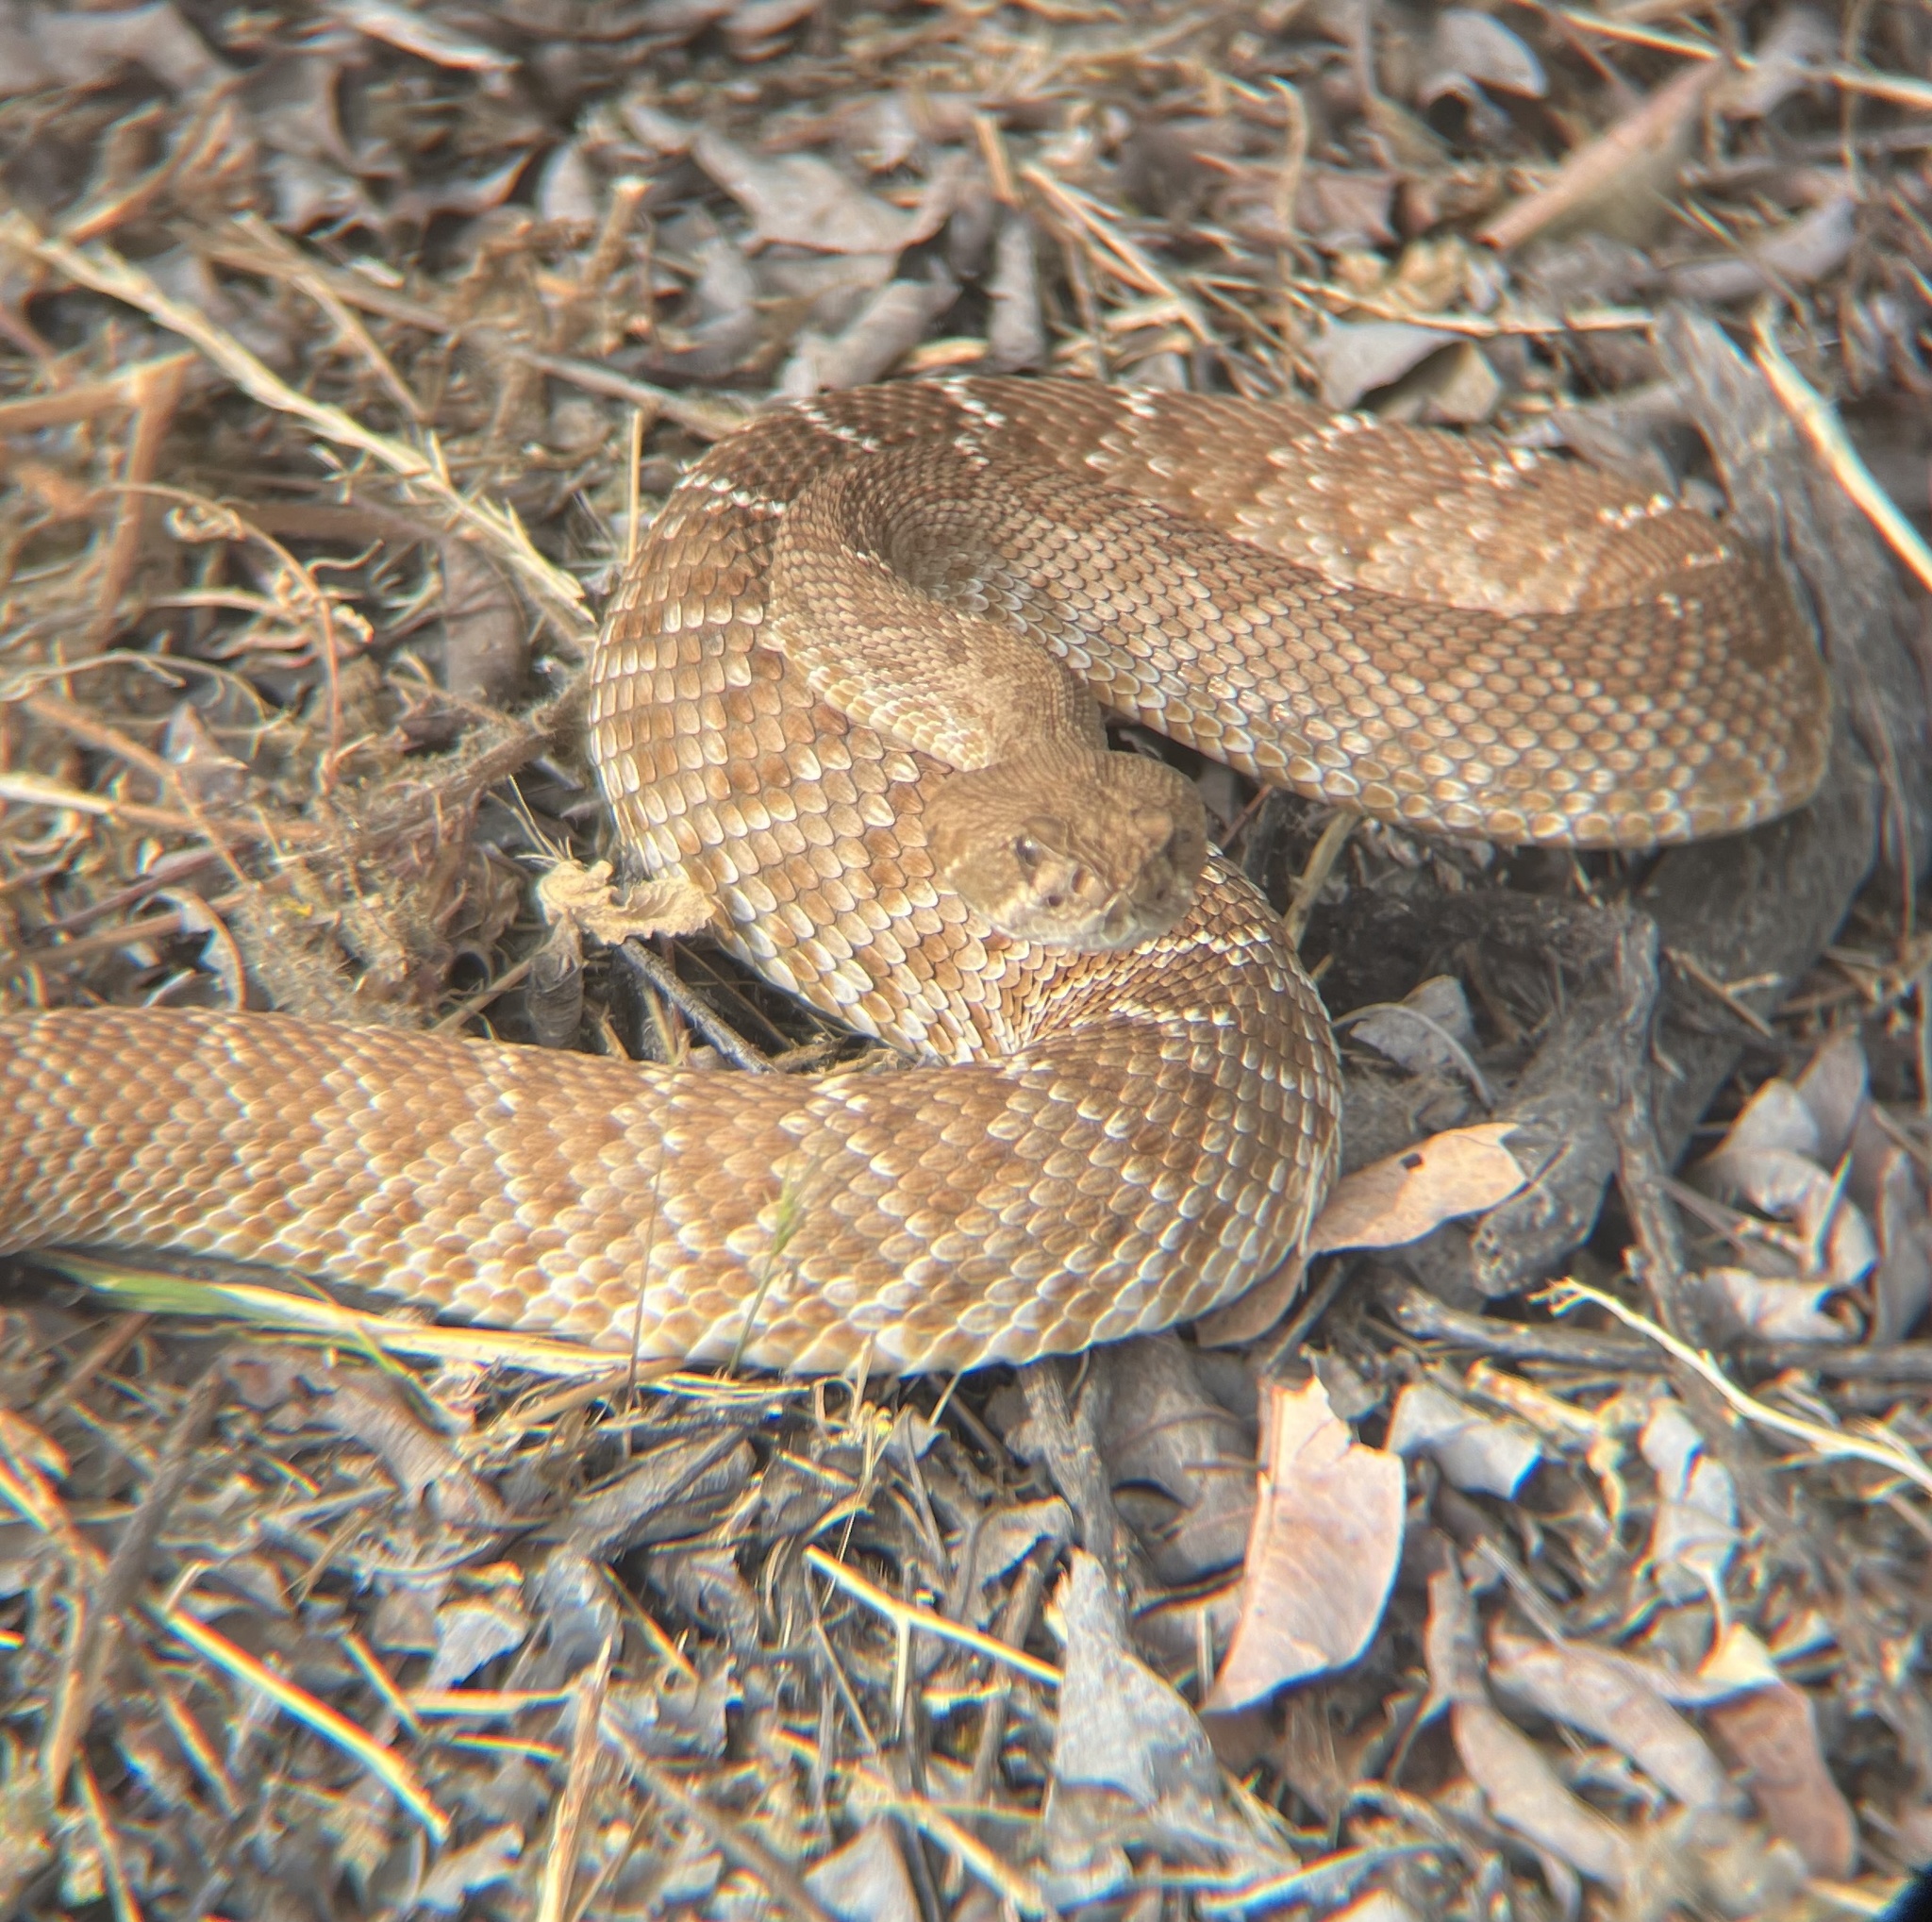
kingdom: Animalia
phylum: Chordata
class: Squamata
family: Viperidae
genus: Crotalus
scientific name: Crotalus ruber
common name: Red diamond rattlesnake
